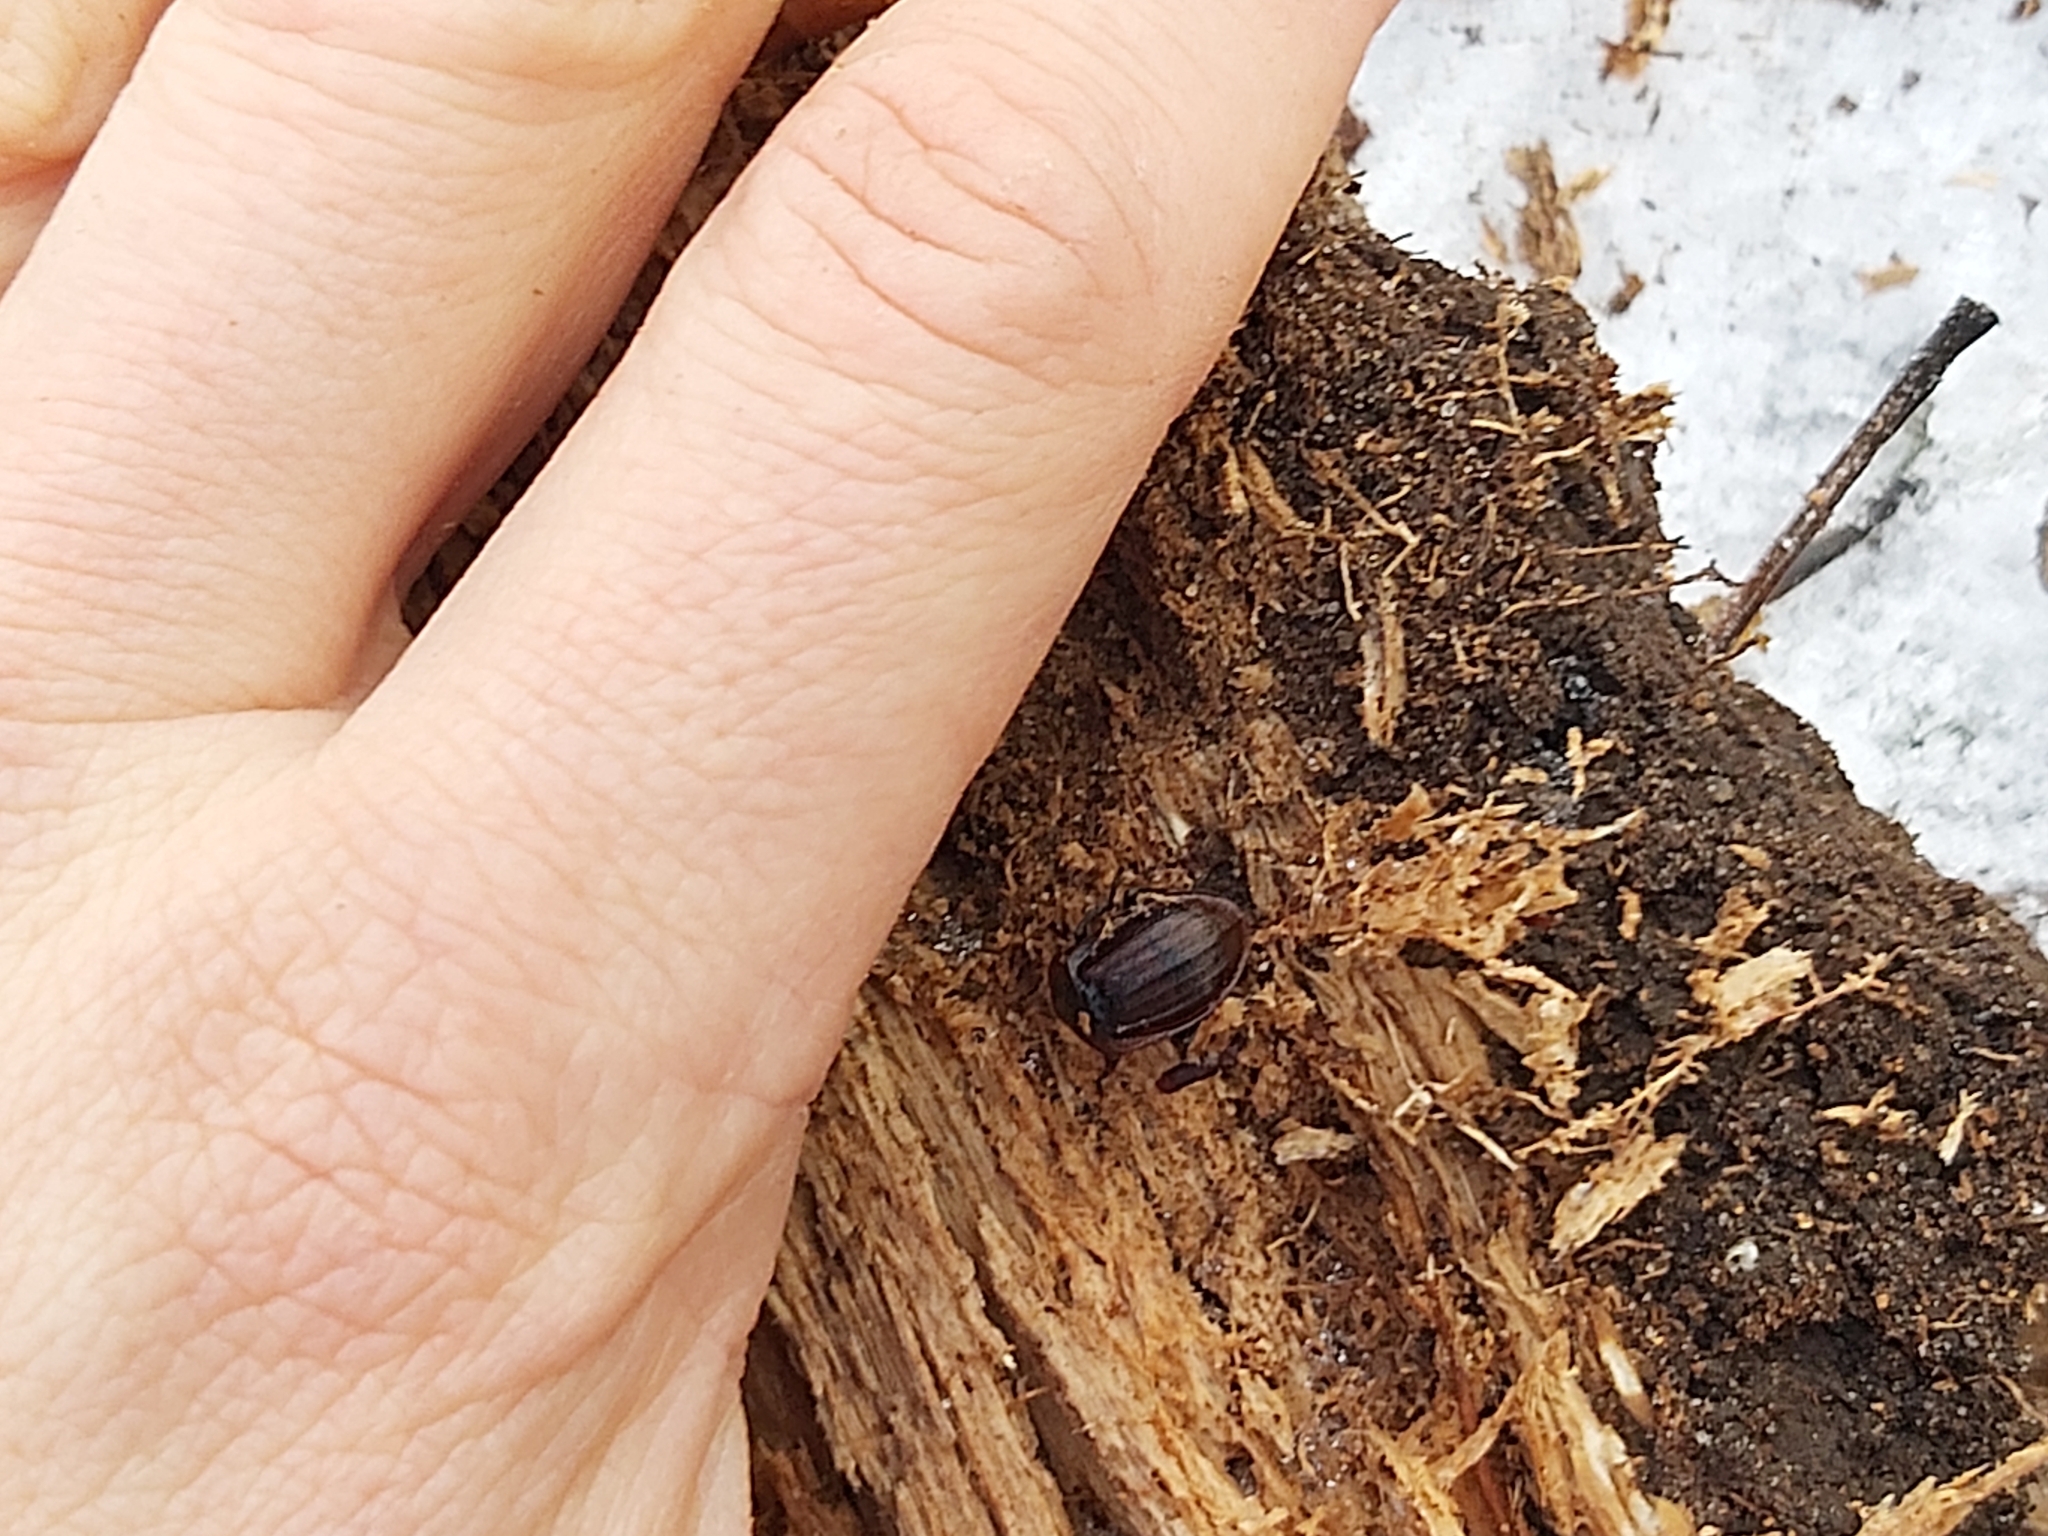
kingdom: Animalia
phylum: Arthropoda
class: Insecta
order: Coleoptera
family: Staphylinidae
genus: Silpha
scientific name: Silpha atrata
